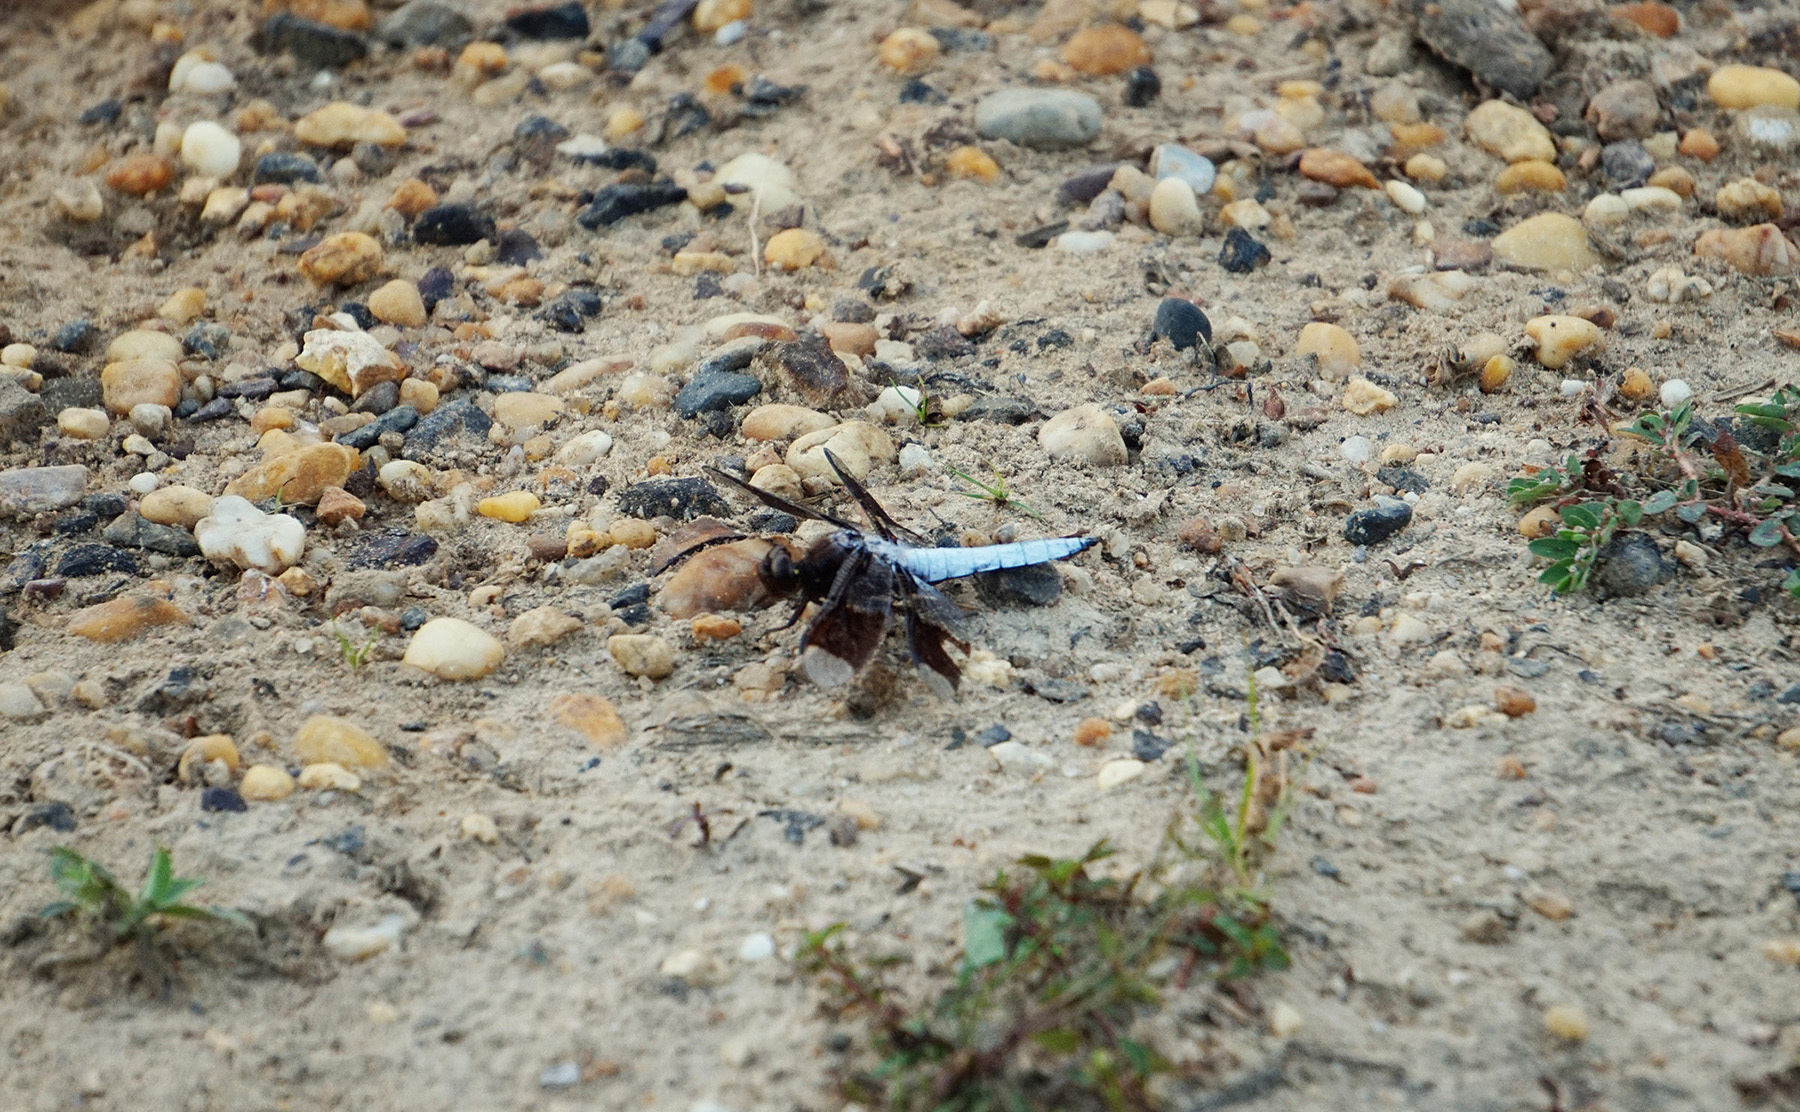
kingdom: Animalia
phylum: Arthropoda
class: Insecta
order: Odonata
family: Libellulidae
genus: Plathemis
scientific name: Plathemis lydia
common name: Common whitetail
